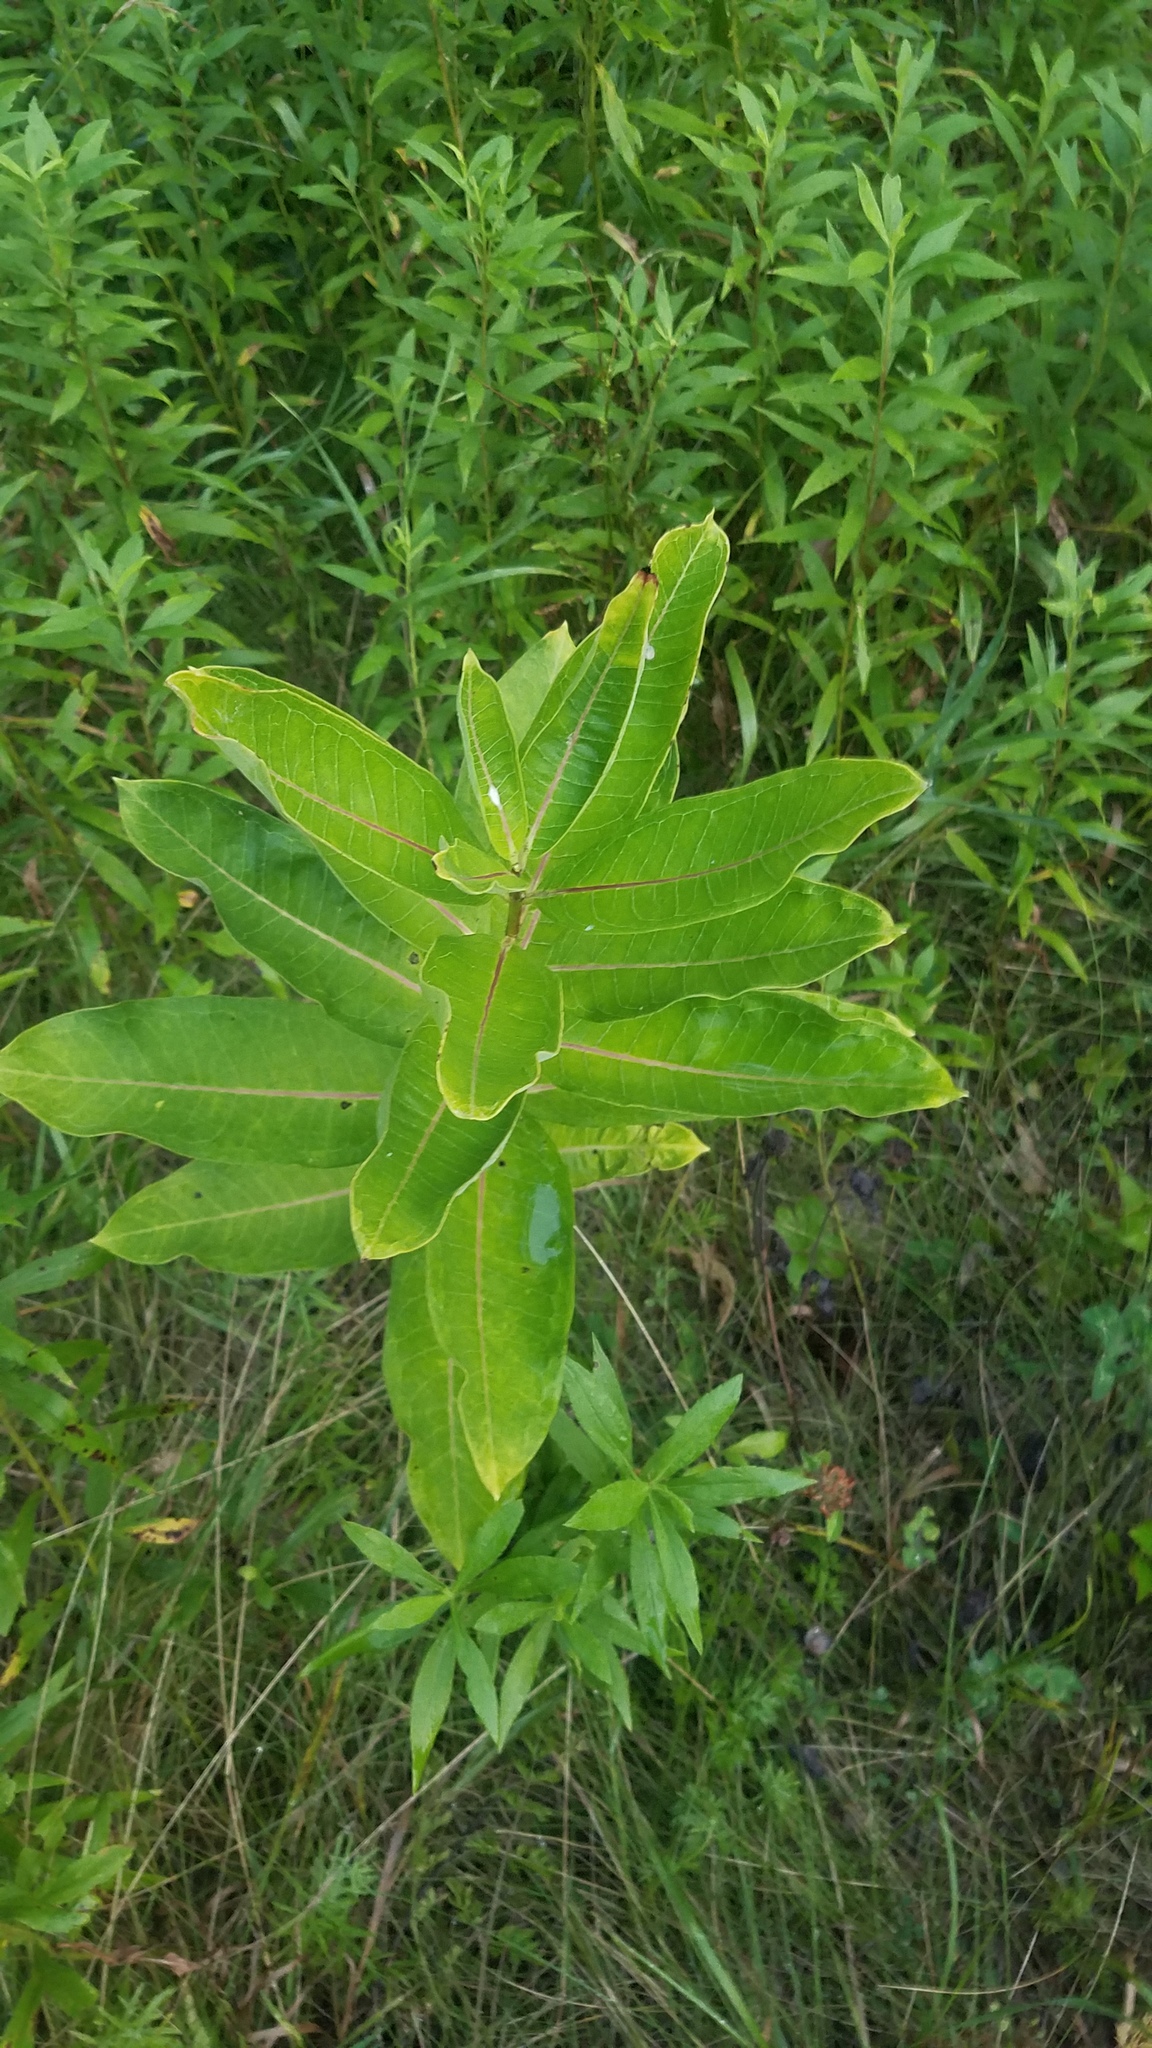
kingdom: Plantae
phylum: Tracheophyta
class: Magnoliopsida
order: Gentianales
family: Apocynaceae
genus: Asclepias
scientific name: Asclepias syriaca
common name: Common milkweed
